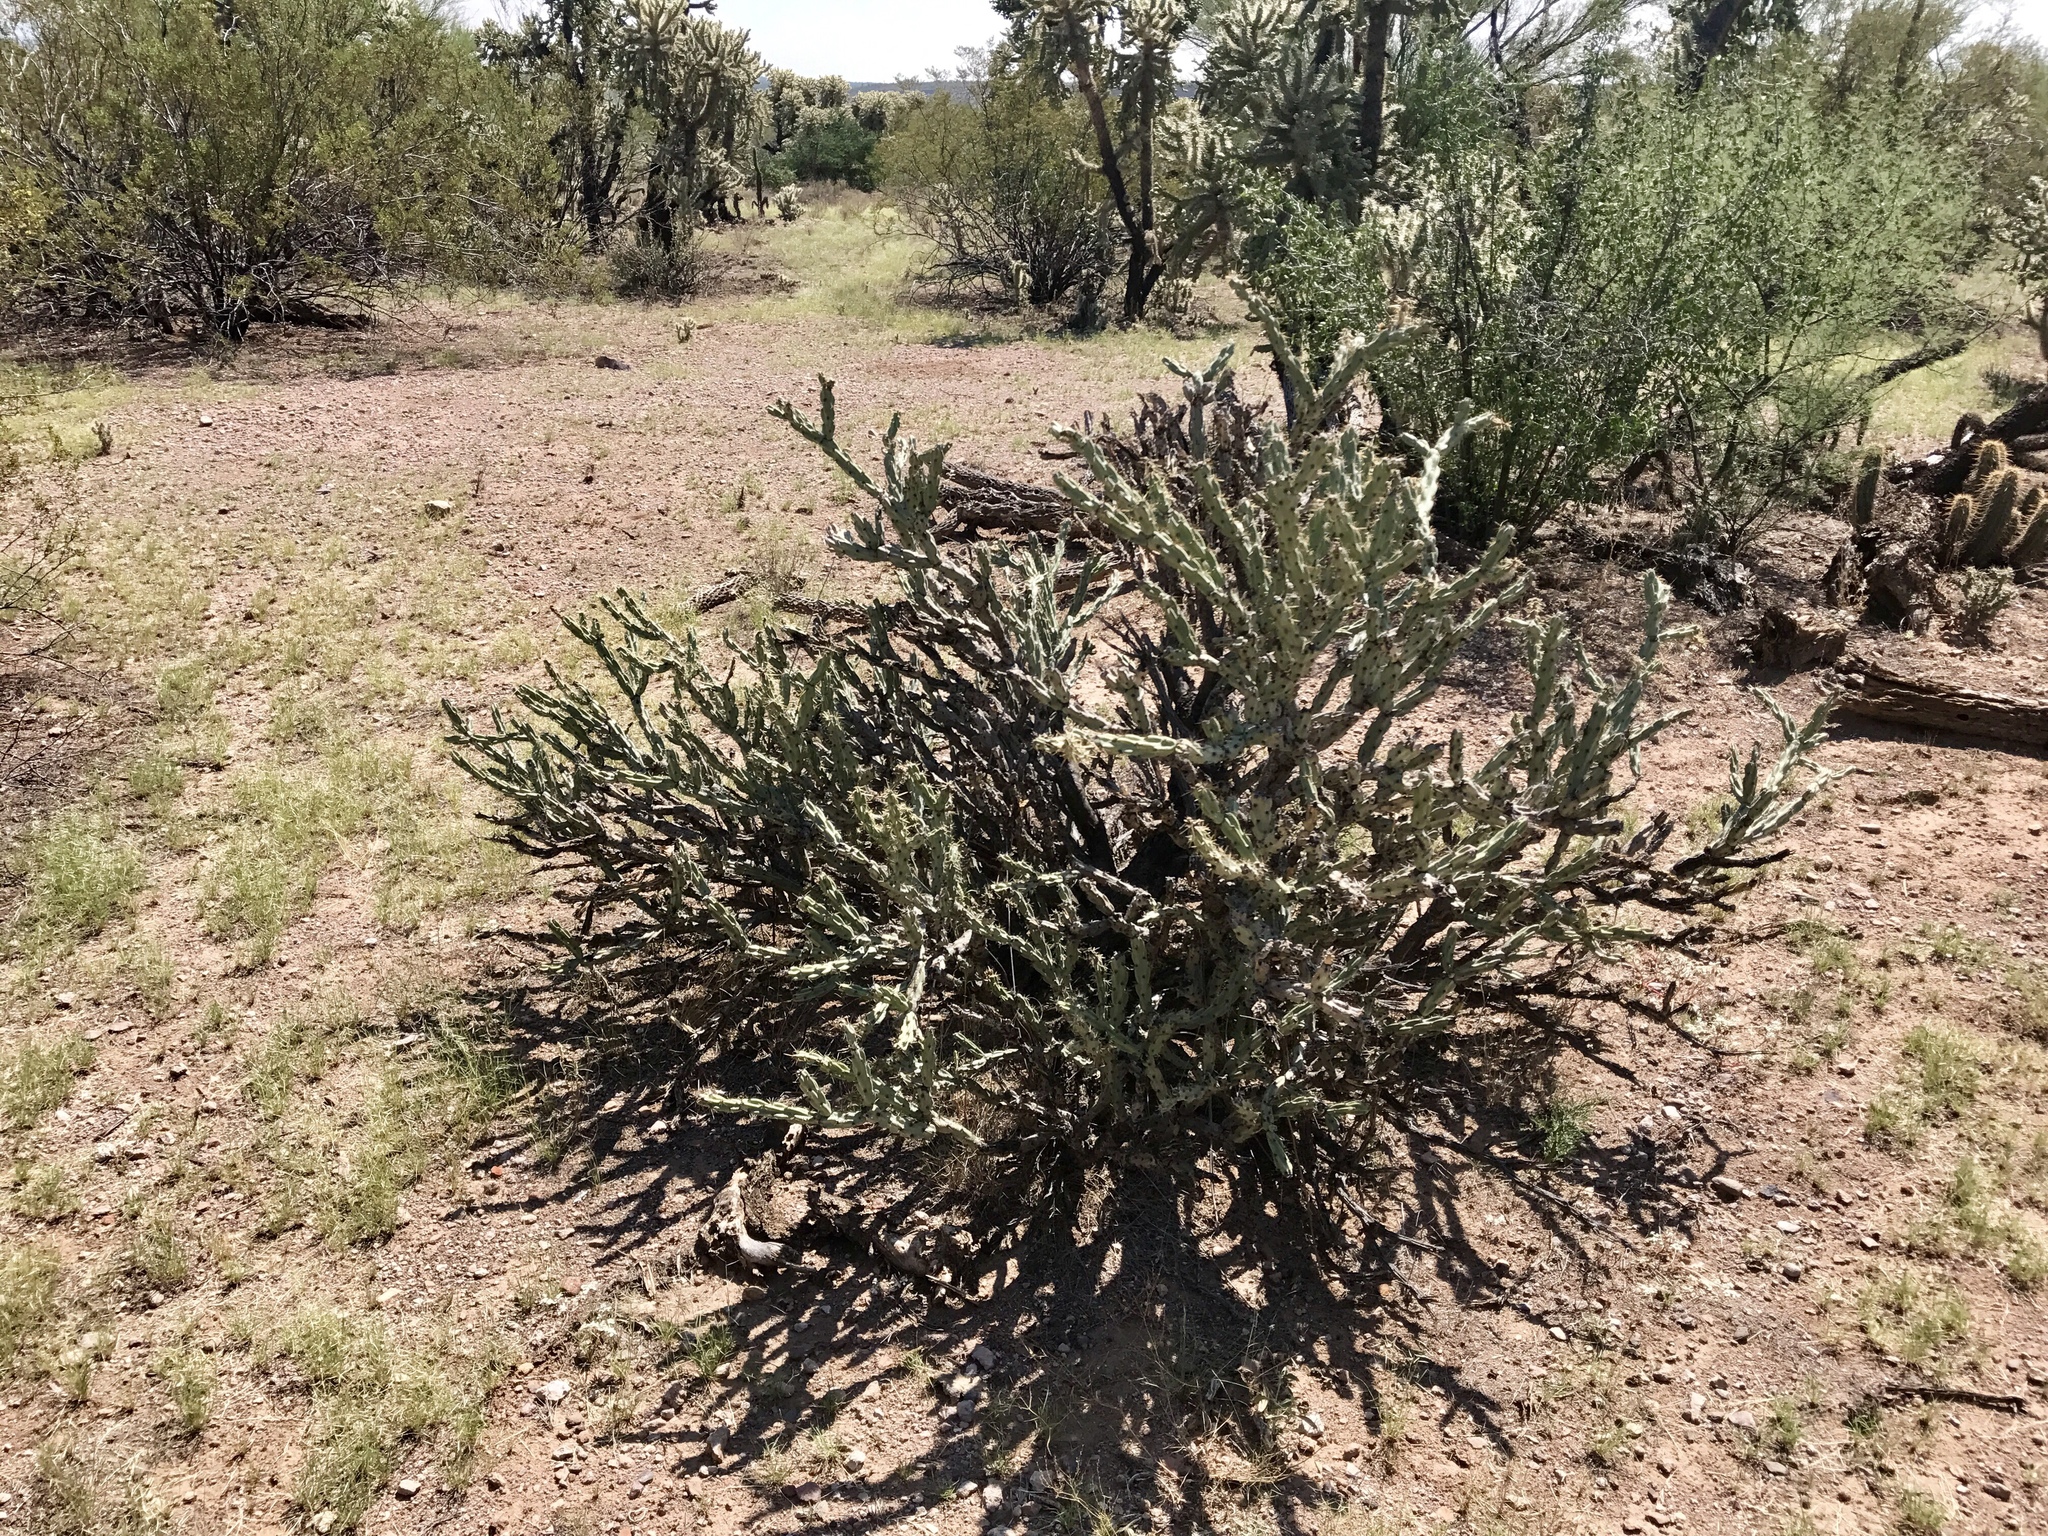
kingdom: Plantae
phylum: Tracheophyta
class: Magnoliopsida
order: Caryophyllales
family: Cactaceae
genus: Cylindropuntia
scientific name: Cylindropuntia acanthocarpa
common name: Buckhorn cholla
